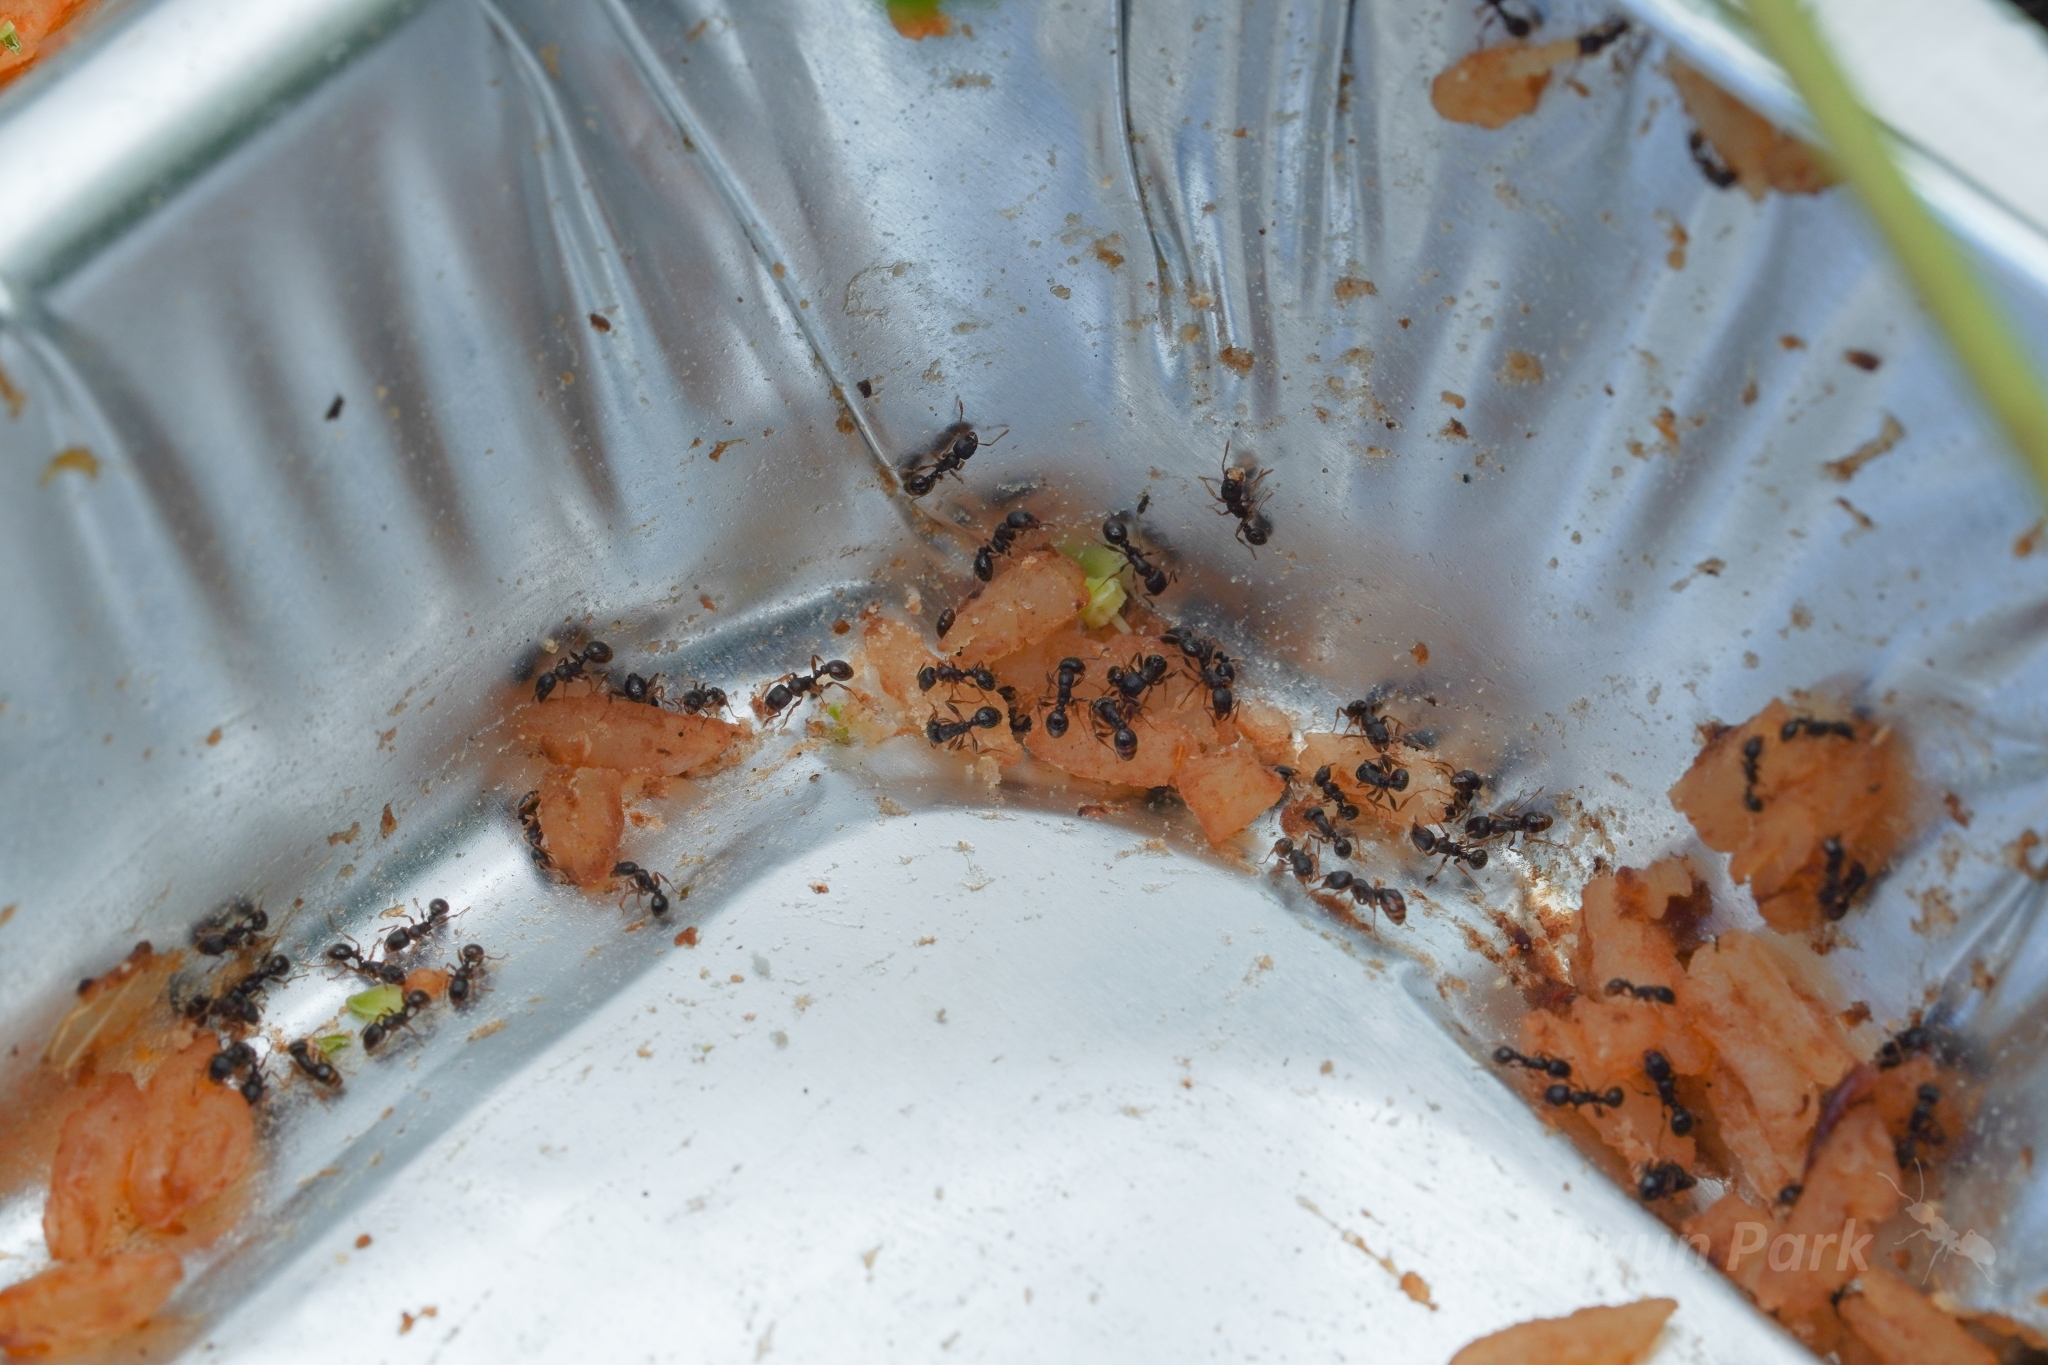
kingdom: Animalia
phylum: Arthropoda
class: Insecta
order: Hymenoptera
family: Formicidae
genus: Tetramorium
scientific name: Tetramorium immigrans
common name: Pavement ant
